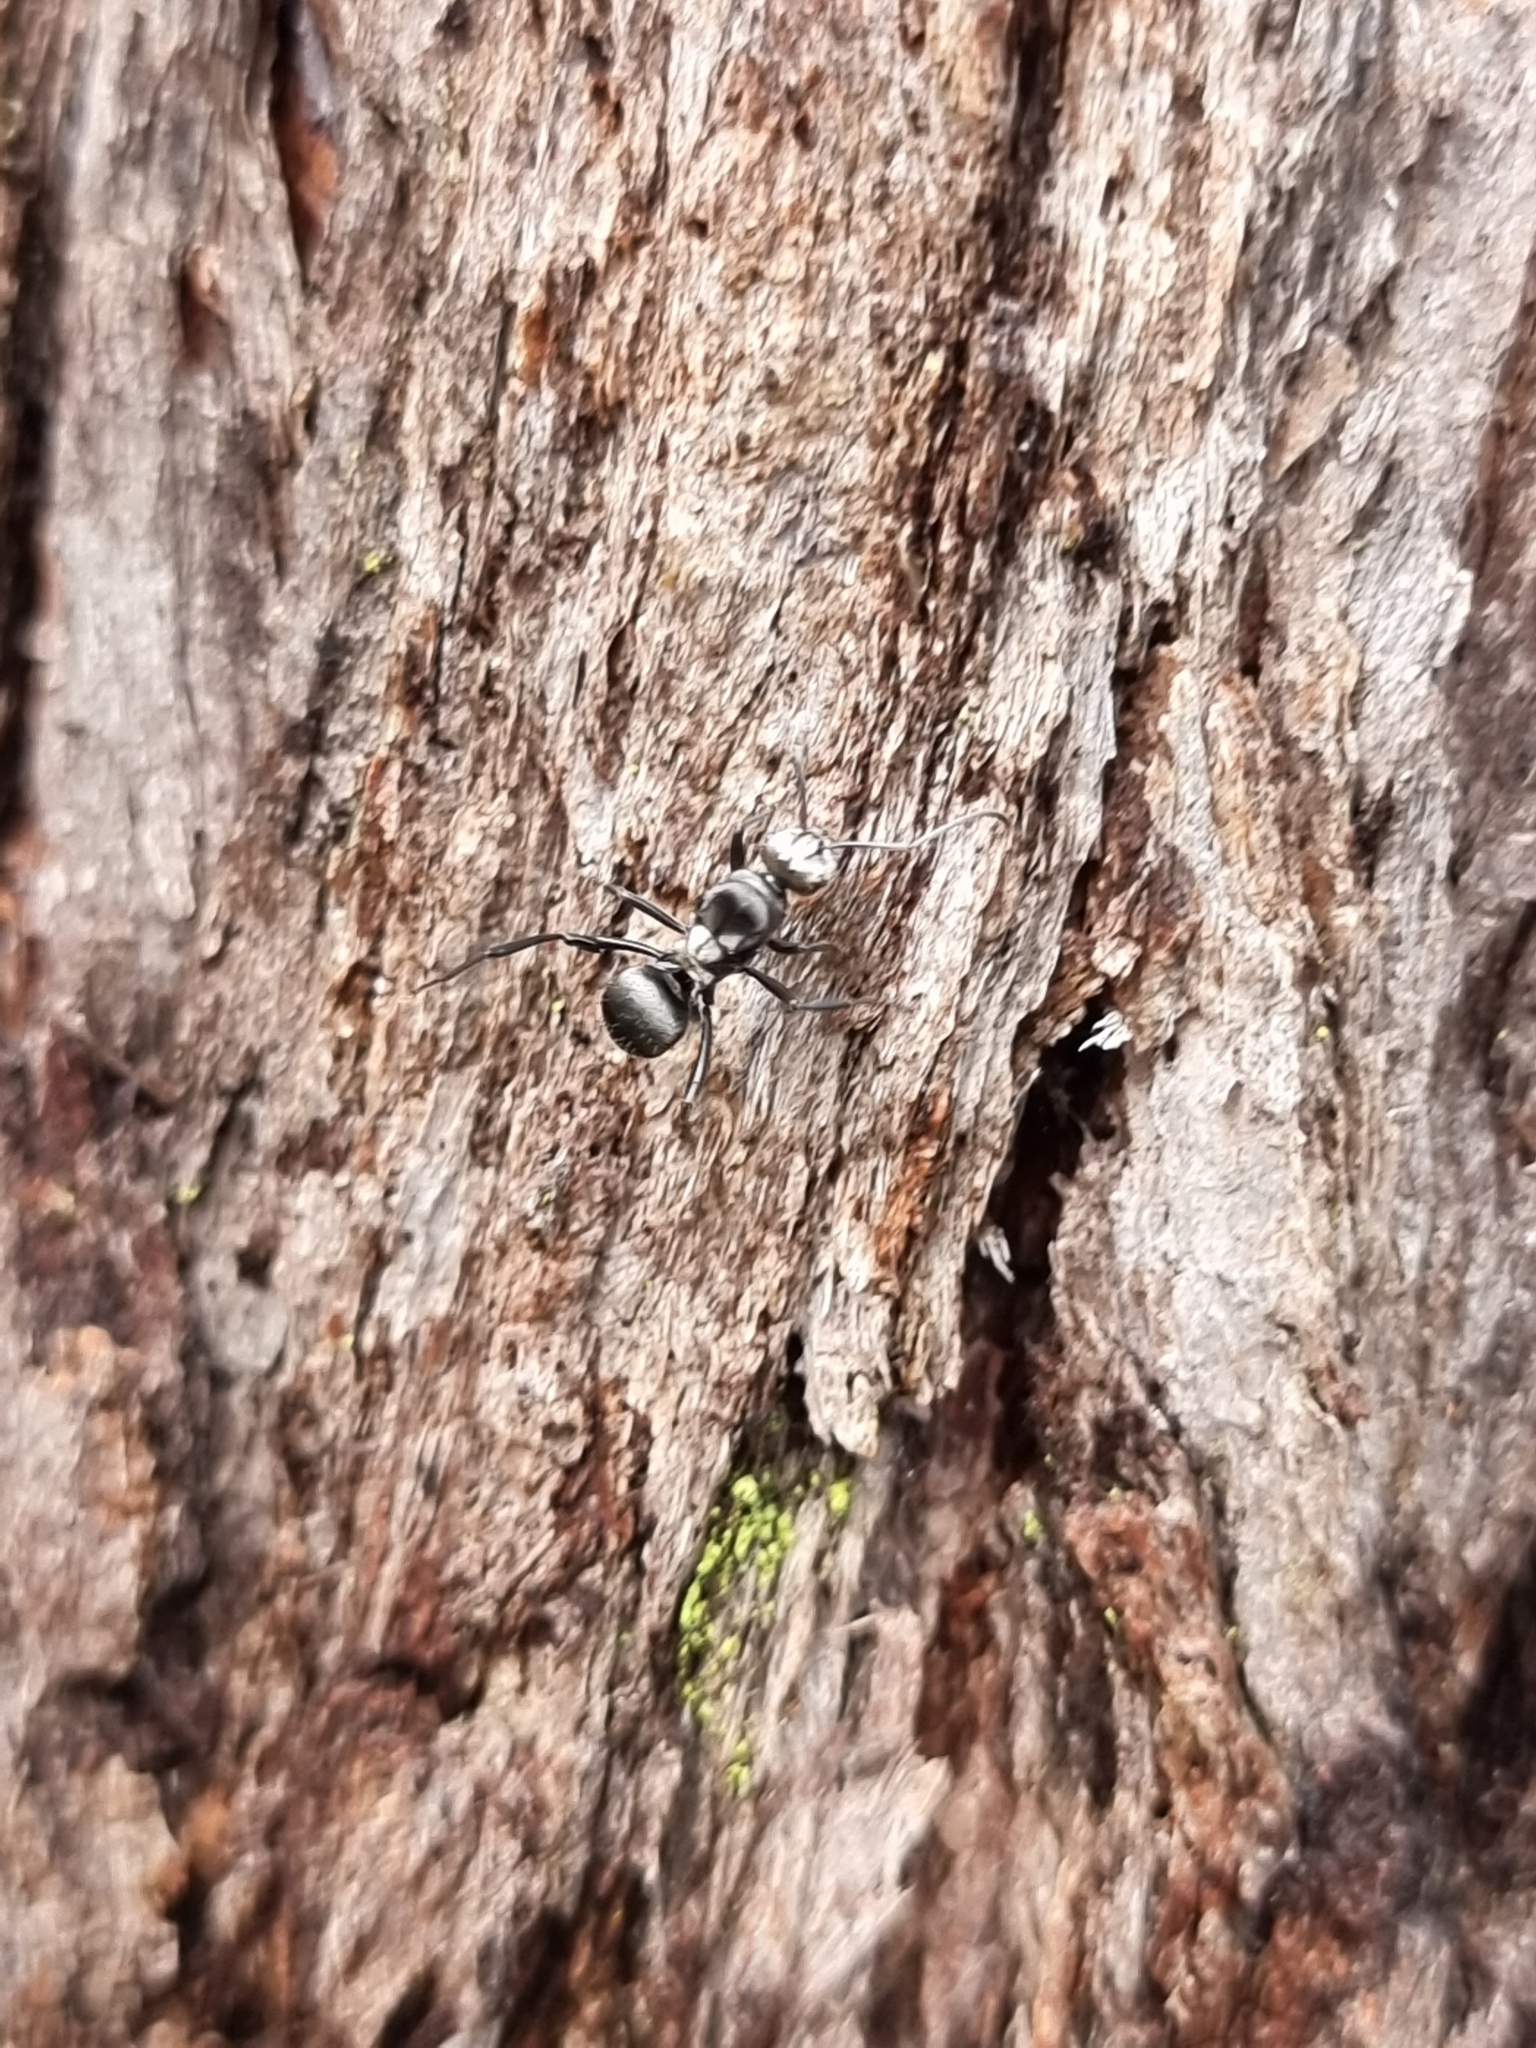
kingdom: Animalia
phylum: Arthropoda
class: Insecta
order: Hymenoptera
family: Formicidae
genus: Polyrhachis
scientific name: Polyrhachis daemeli
